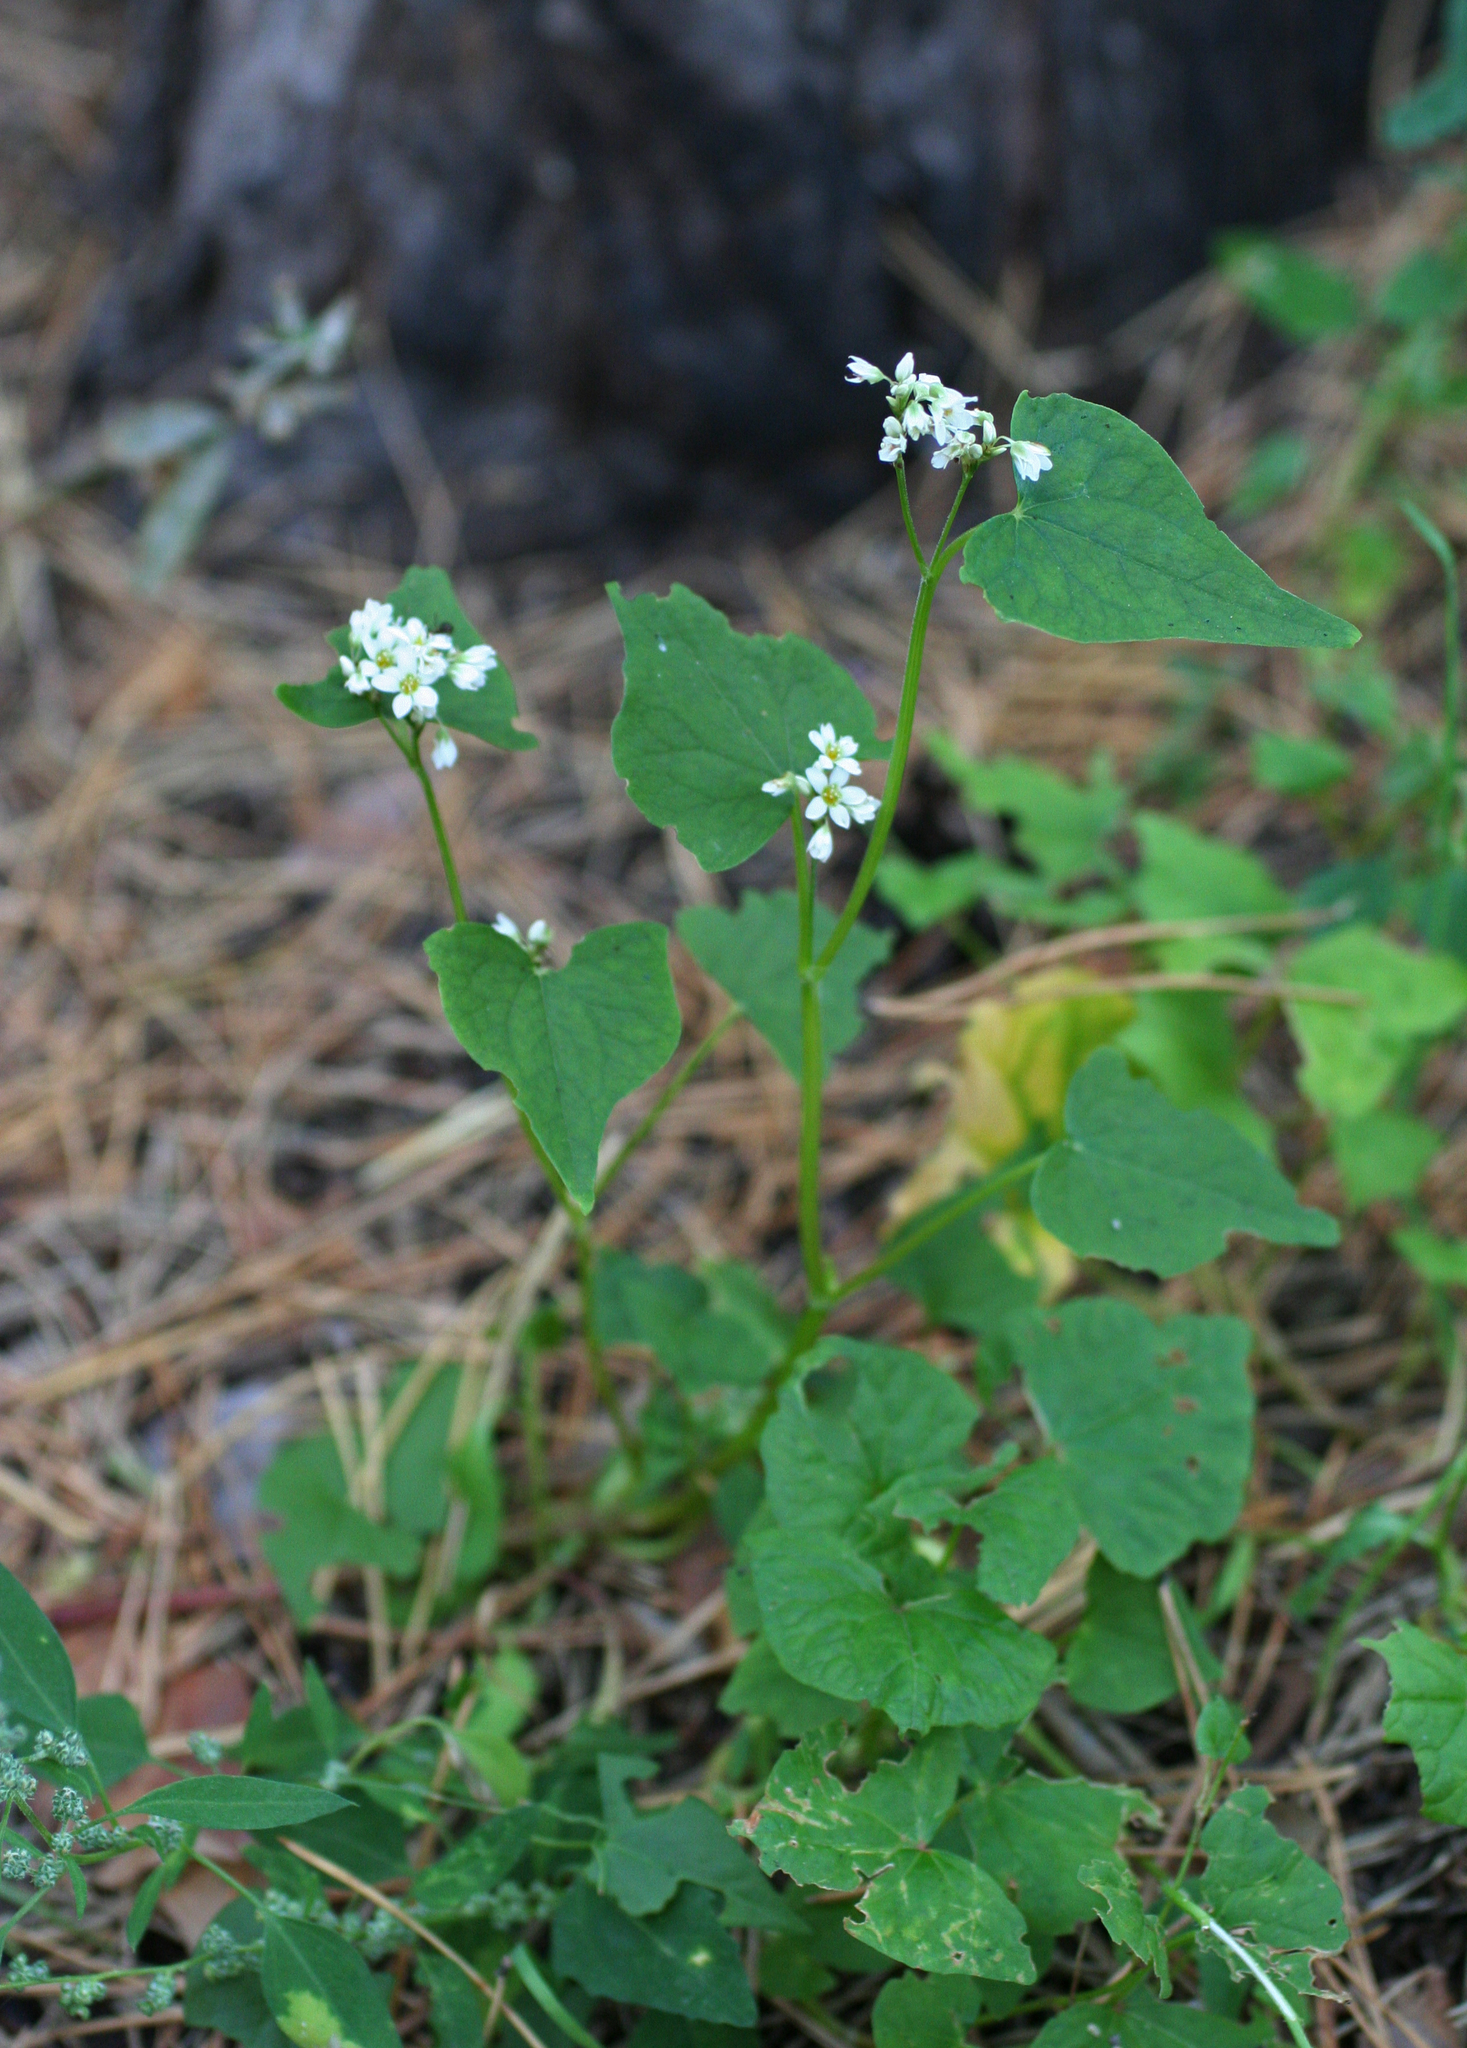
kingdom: Plantae
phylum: Tracheophyta
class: Magnoliopsida
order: Caryophyllales
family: Polygonaceae
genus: Fagopyrum
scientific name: Fagopyrum esculentum
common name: Buckwheat
